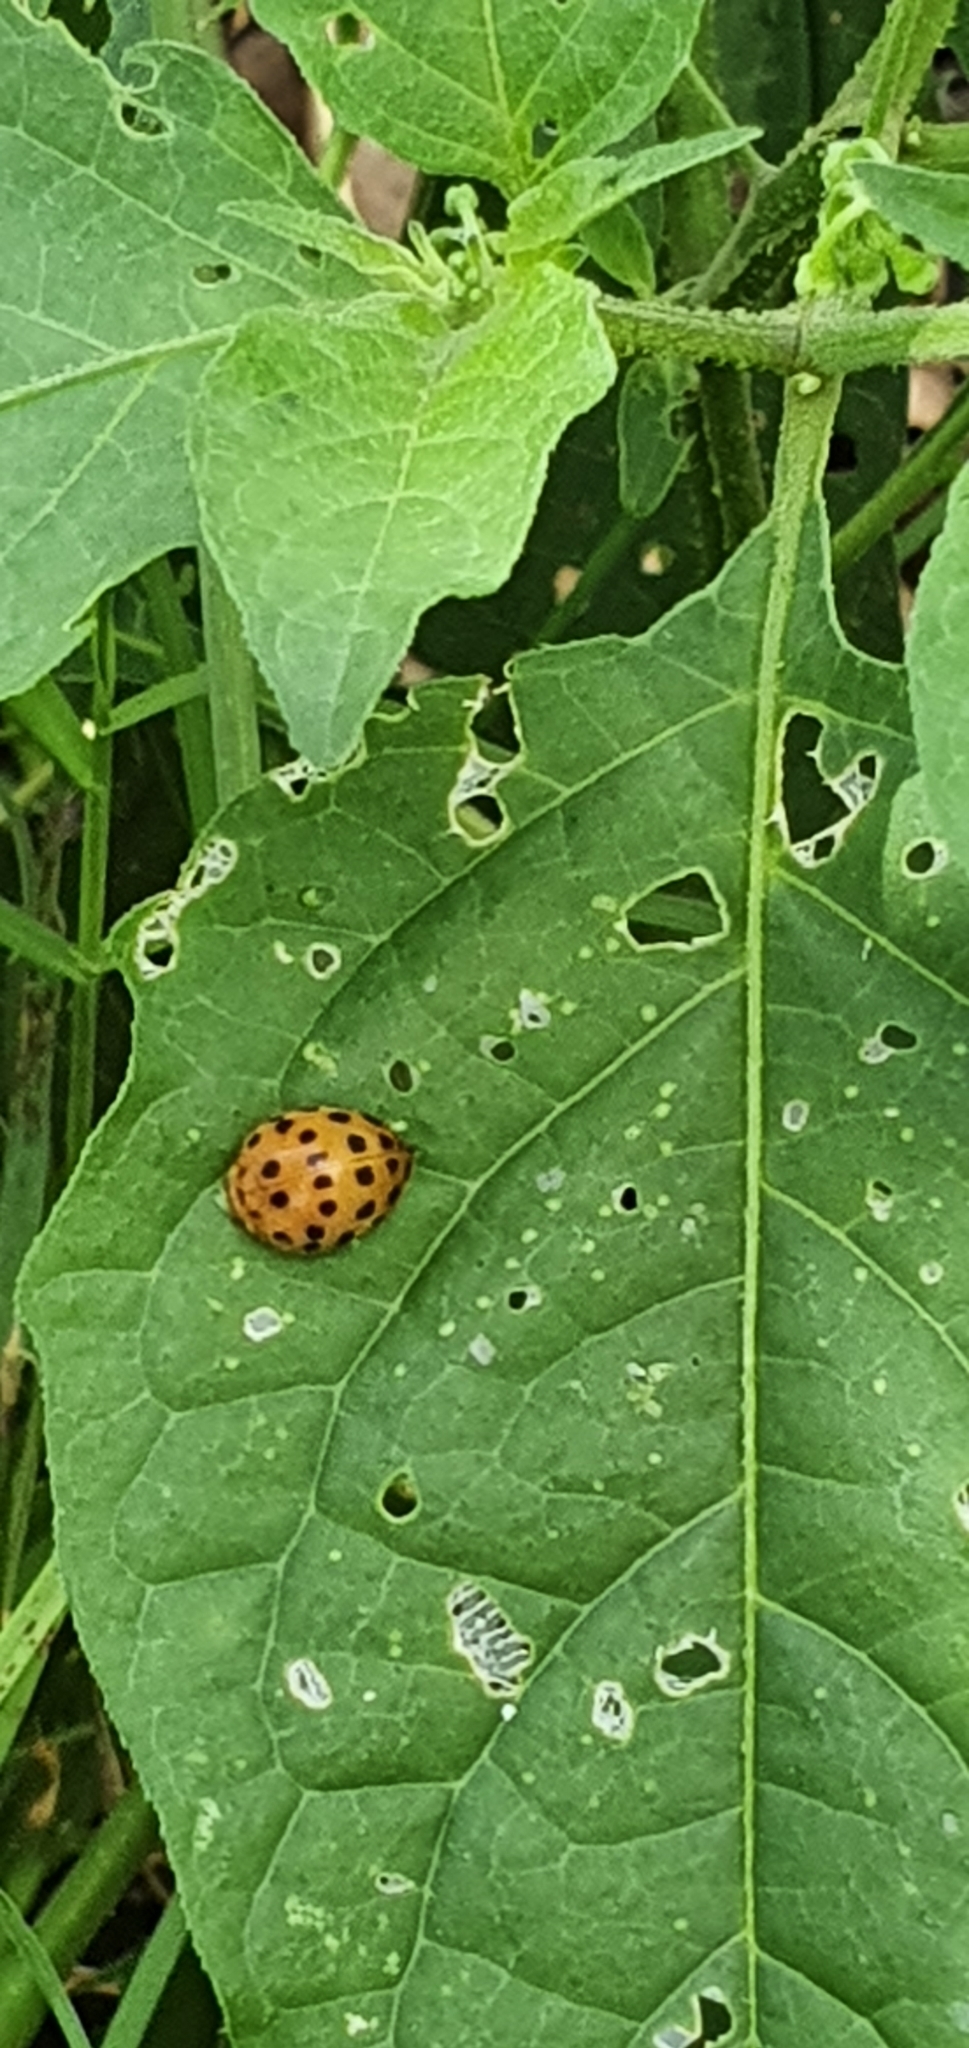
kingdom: Animalia
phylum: Arthropoda
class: Insecta
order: Coleoptera
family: Coccinellidae
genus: Henosepilachna
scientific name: Henosepilachna vigintioctopunctata
